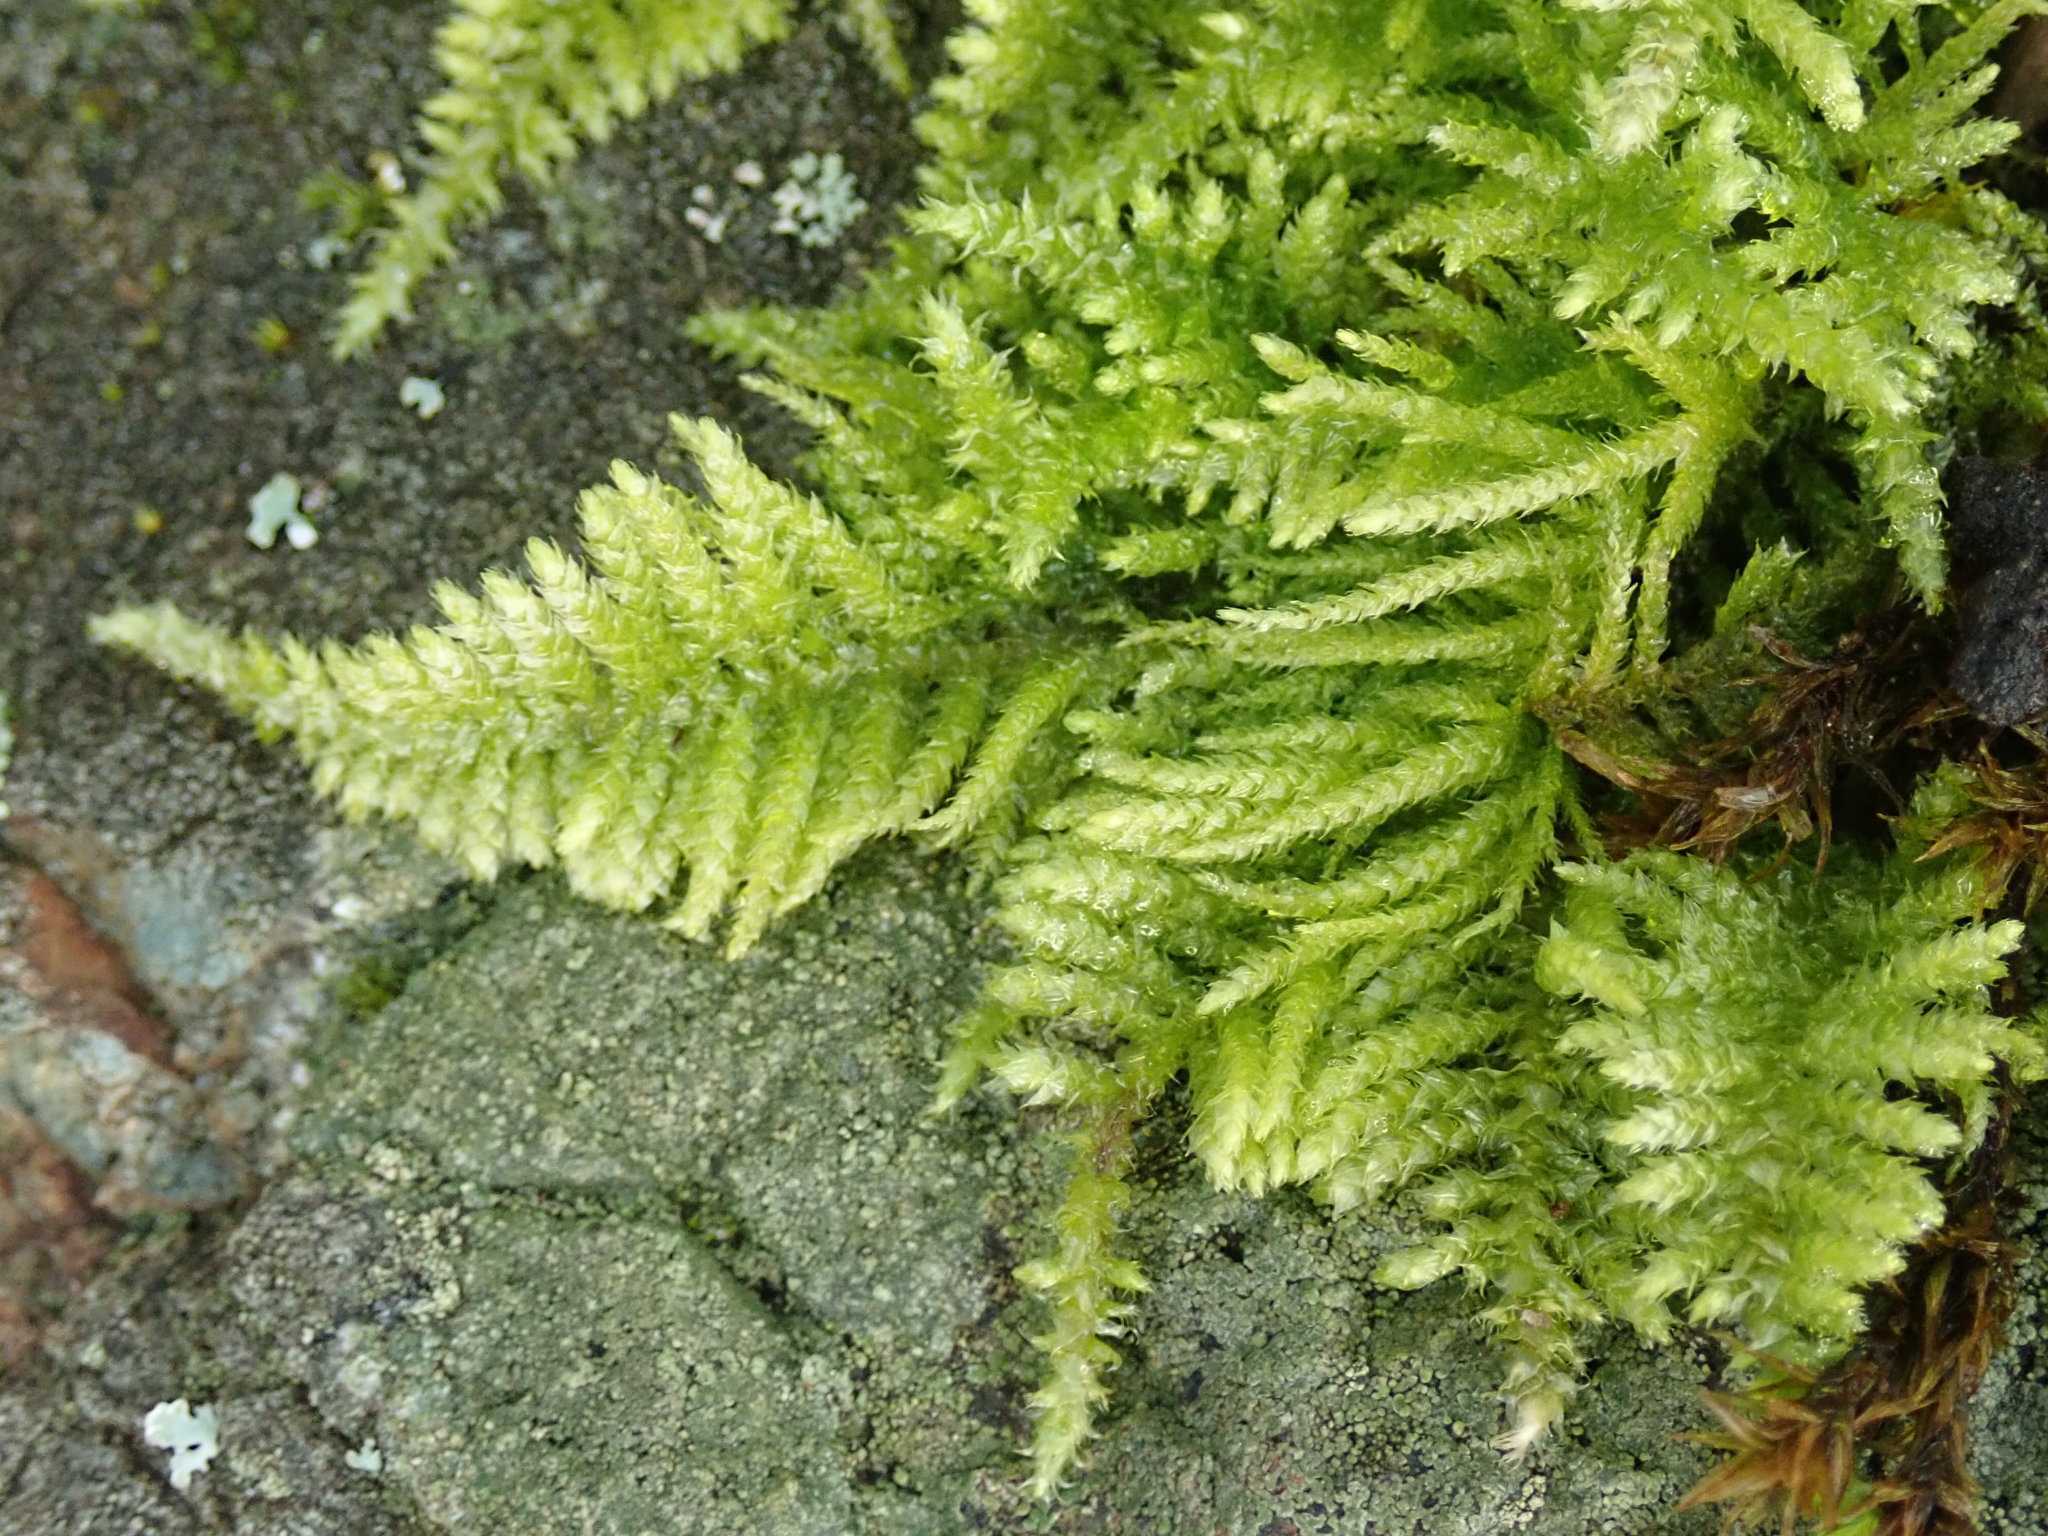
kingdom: Plantae
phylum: Bryophyta
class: Bryopsida
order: Hypnales
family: Brachytheciaceae
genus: Kindbergia
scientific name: Kindbergia oregana
